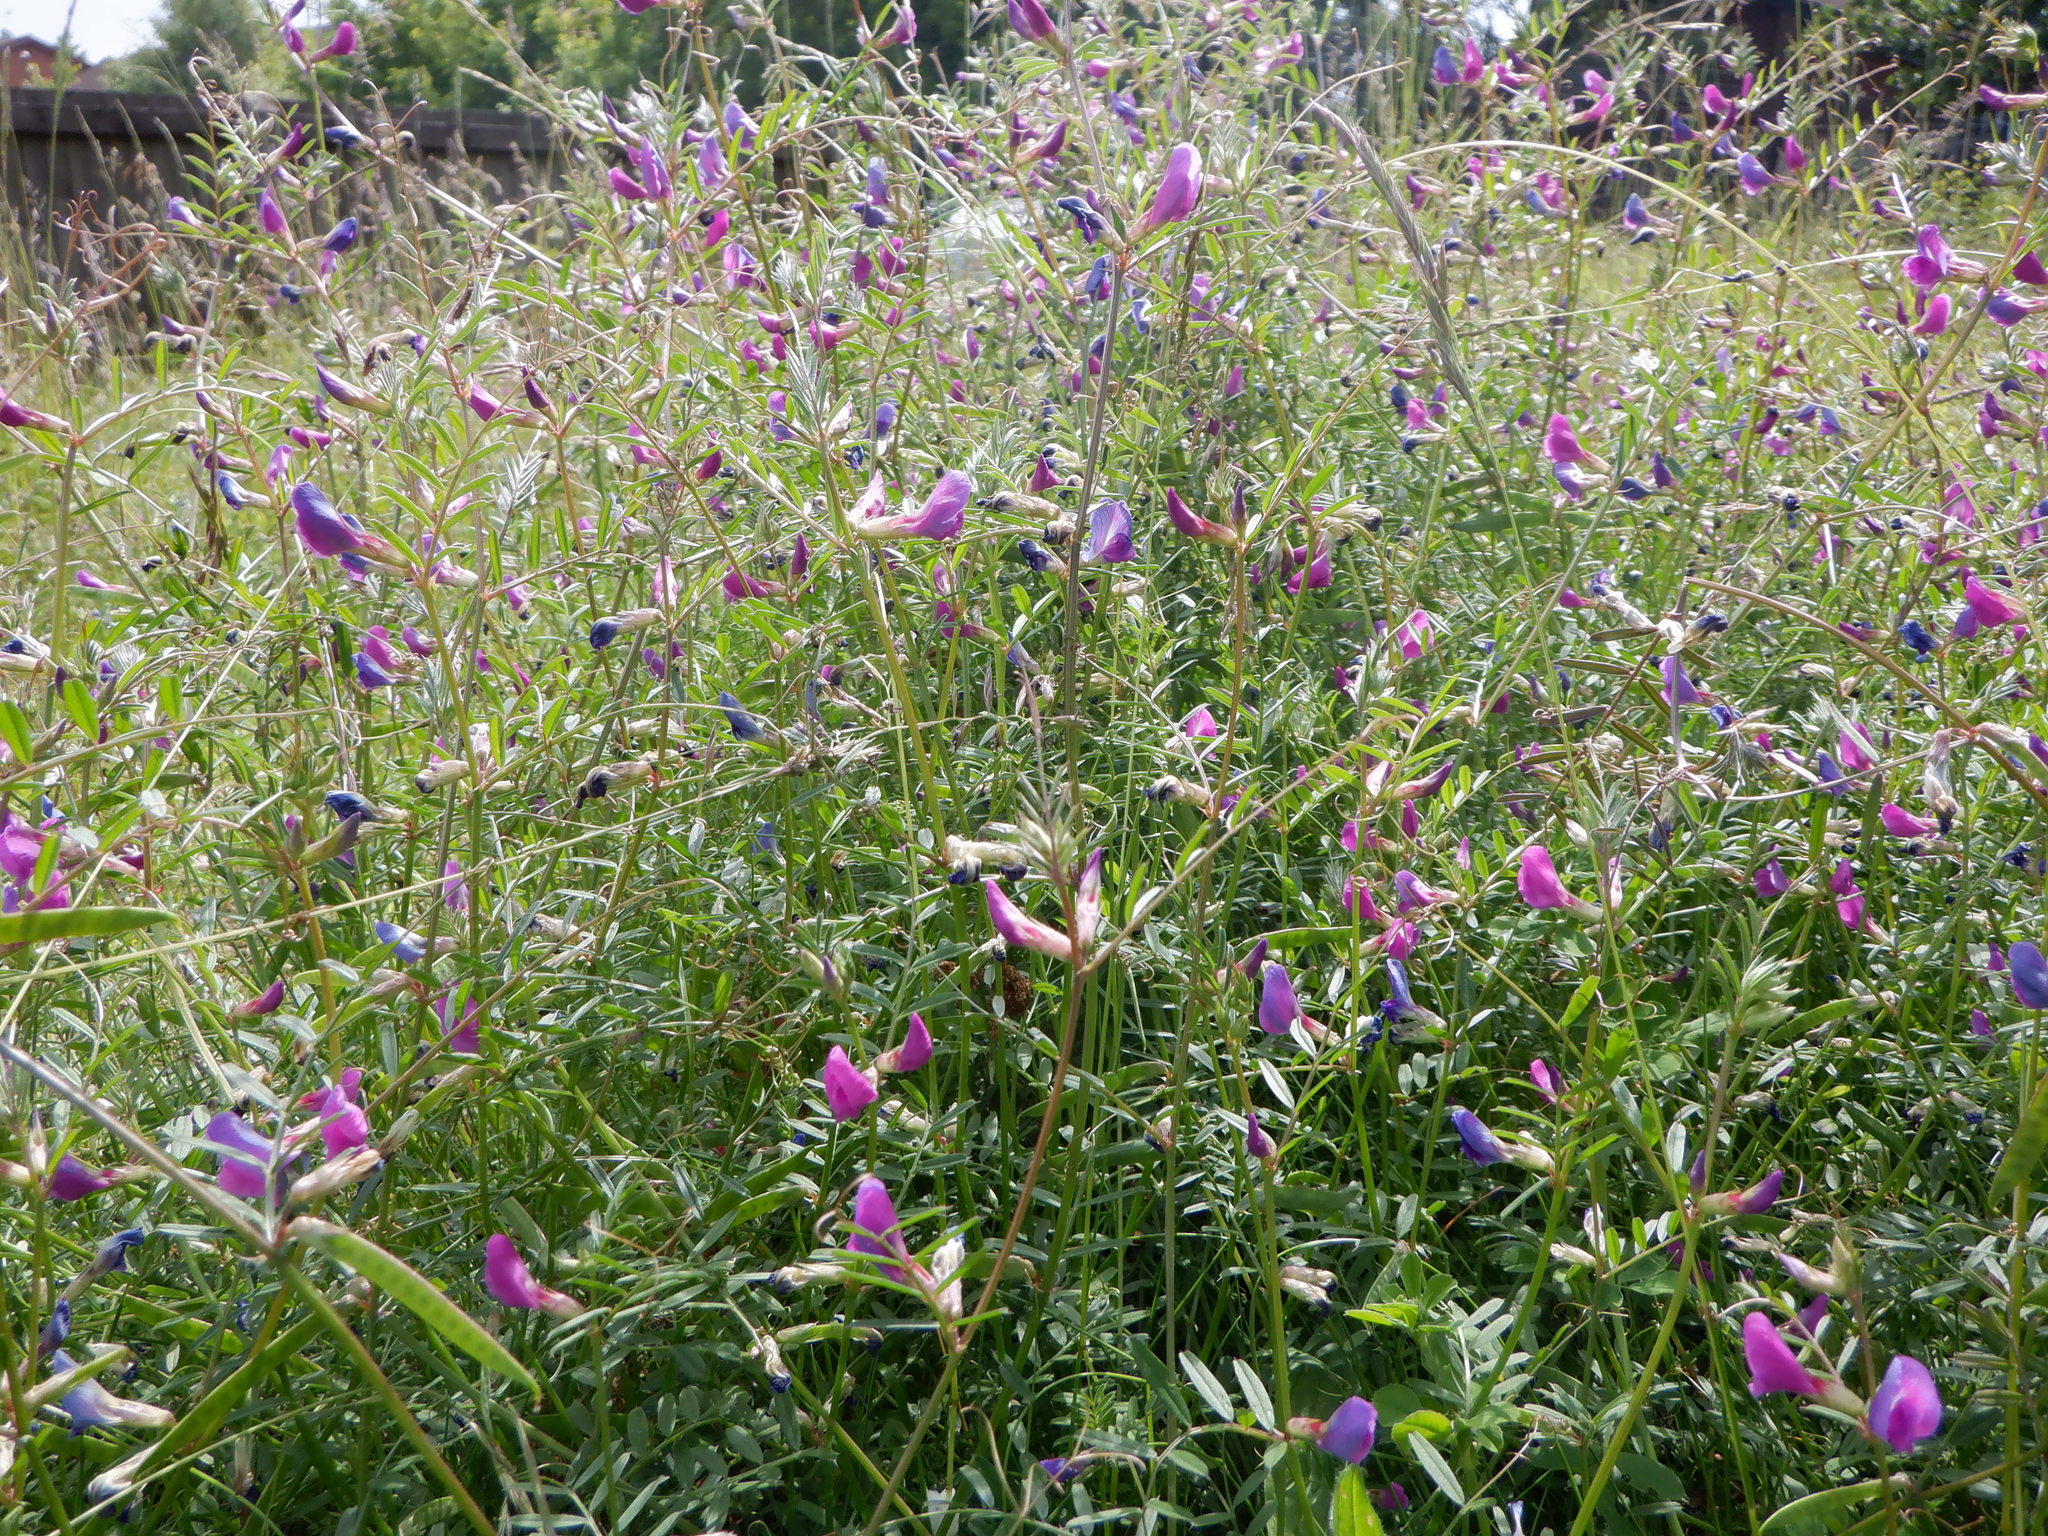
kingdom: Plantae
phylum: Tracheophyta
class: Magnoliopsida
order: Fabales
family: Fabaceae
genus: Vicia
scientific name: Vicia sativa
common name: Garden vetch
